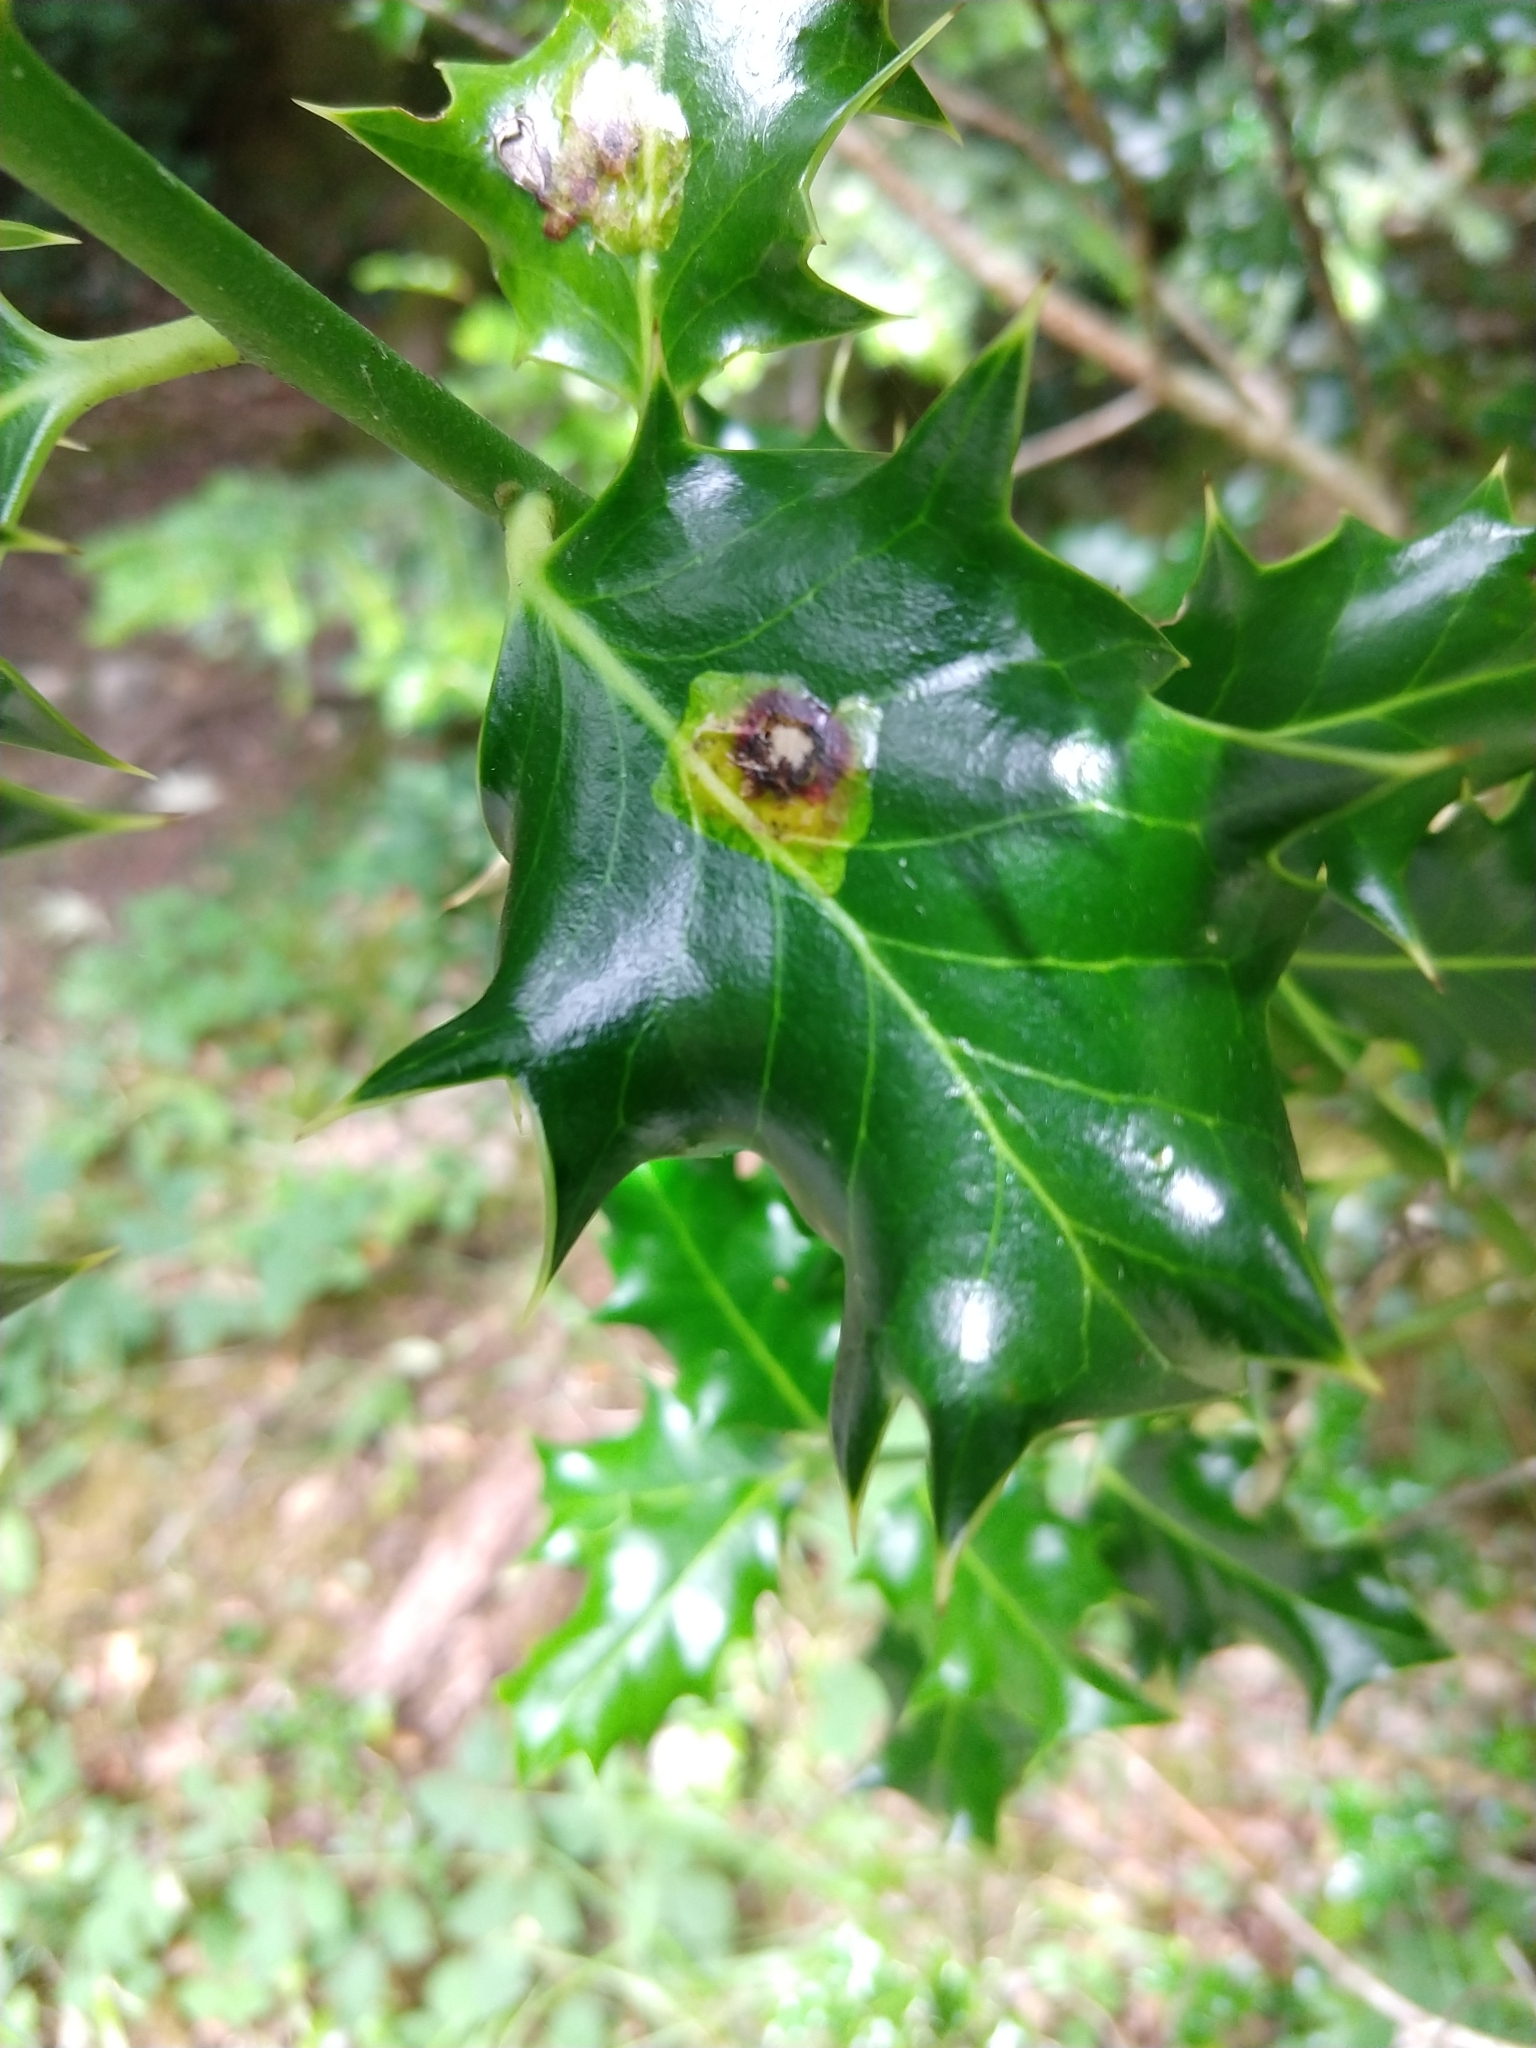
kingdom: Animalia
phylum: Arthropoda
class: Insecta
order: Diptera
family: Agromyzidae
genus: Phytomyza
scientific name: Phytomyza ilicis
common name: Holly leafminer
